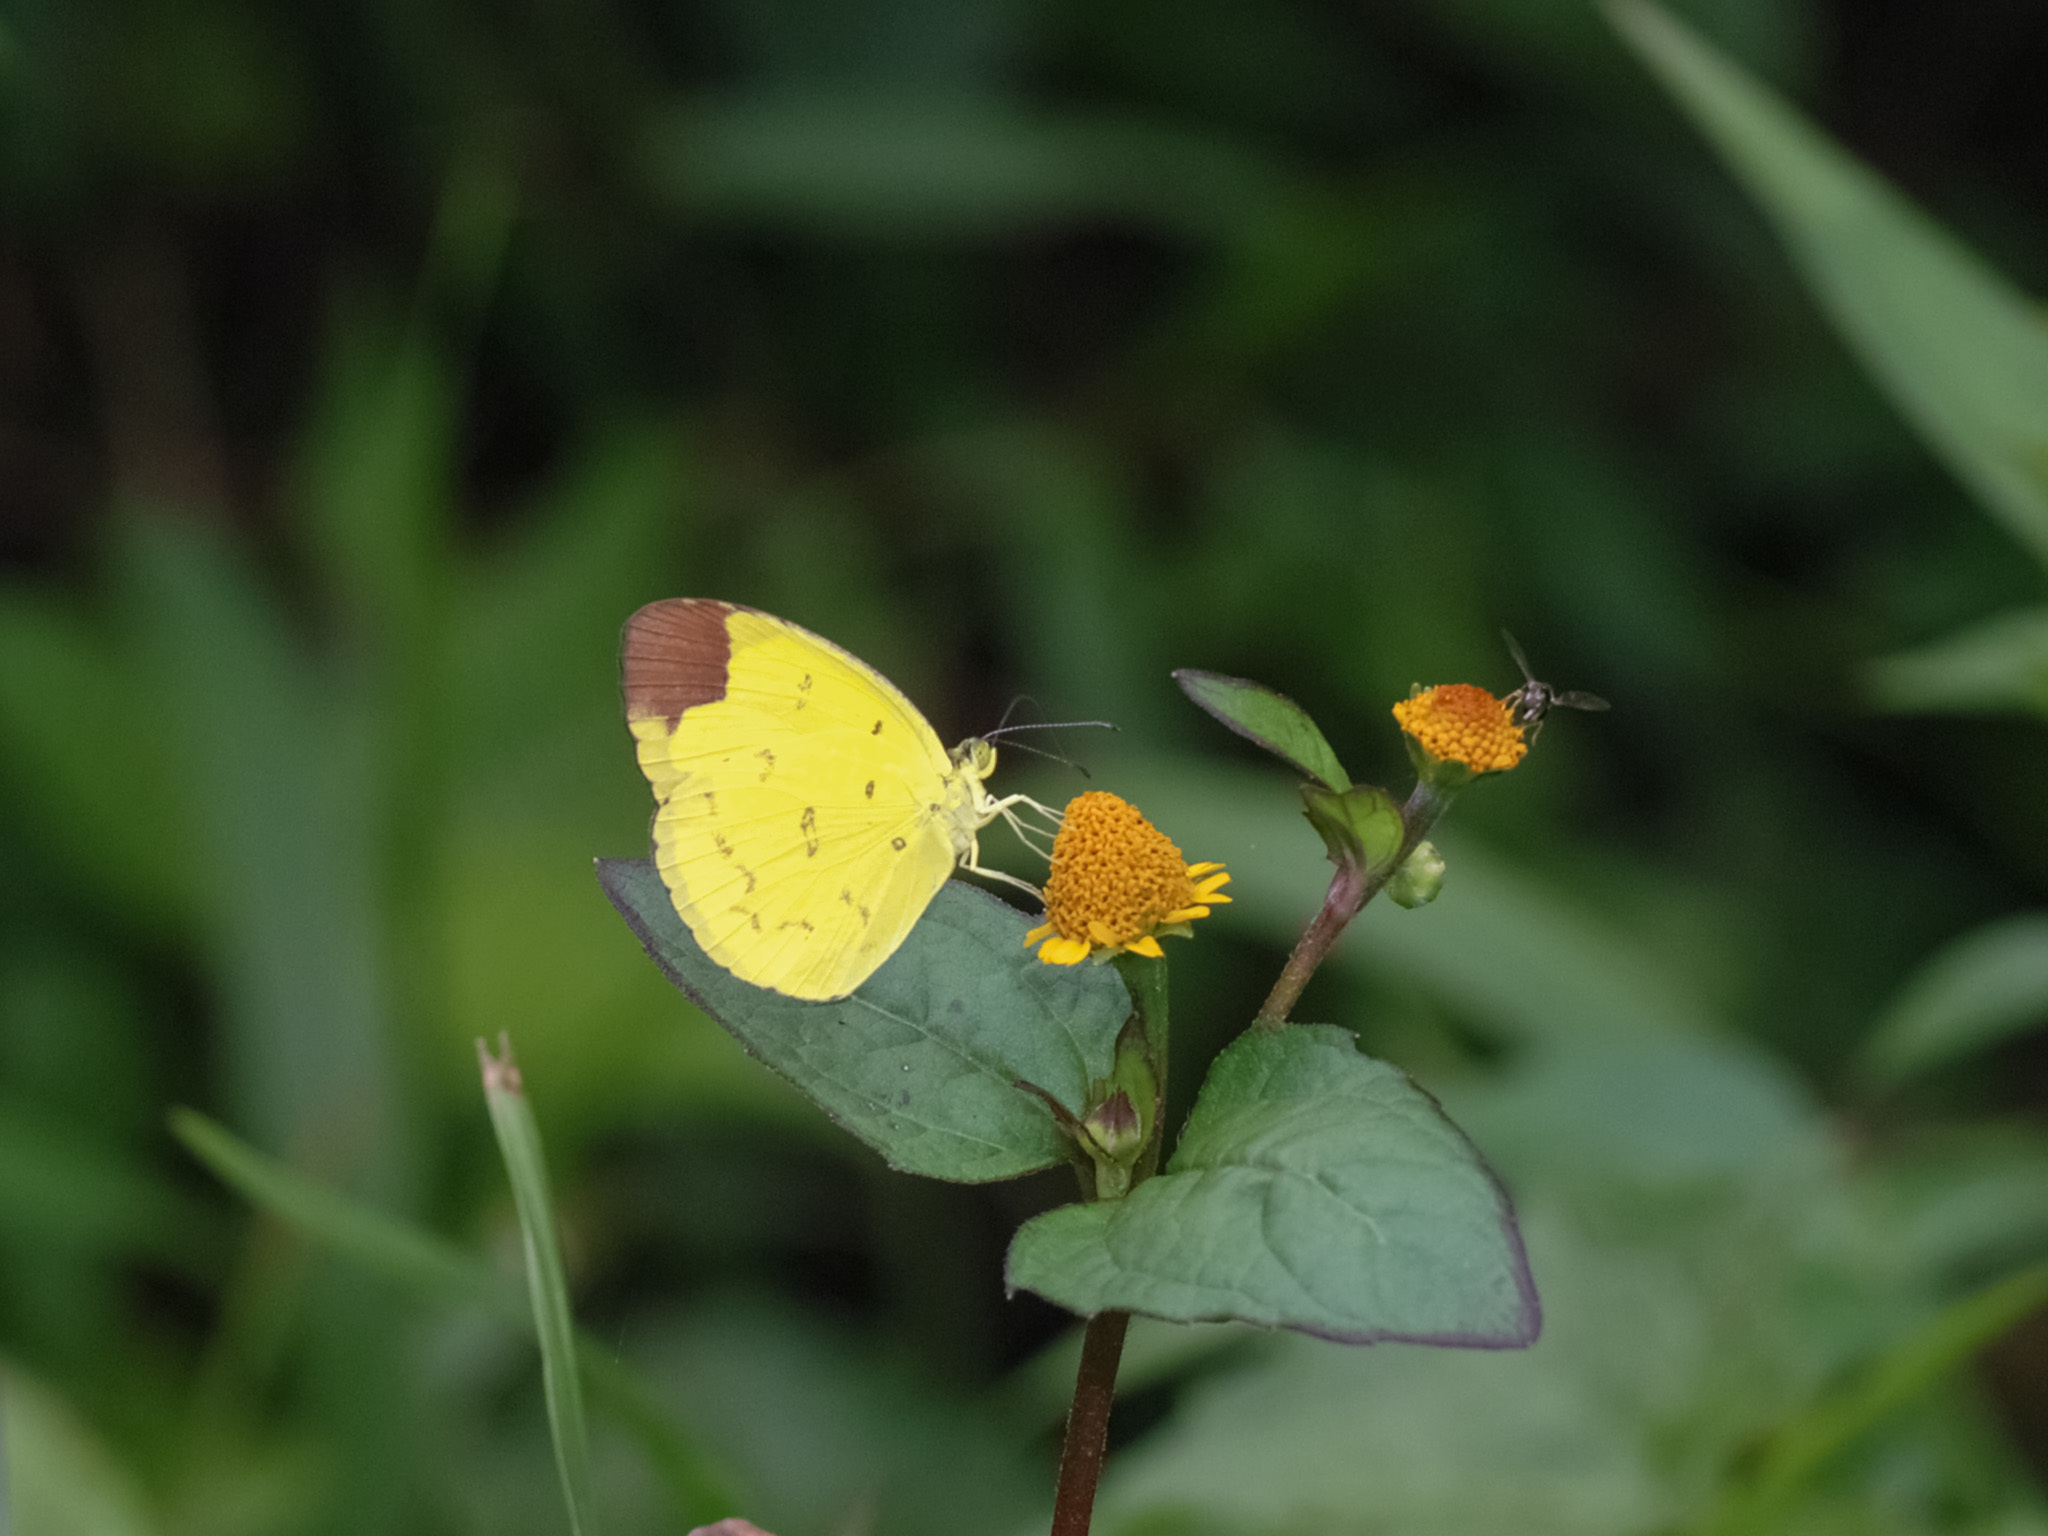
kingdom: Animalia
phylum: Arthropoda
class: Insecta
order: Lepidoptera
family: Pieridae
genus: Eurema
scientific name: Eurema sari
